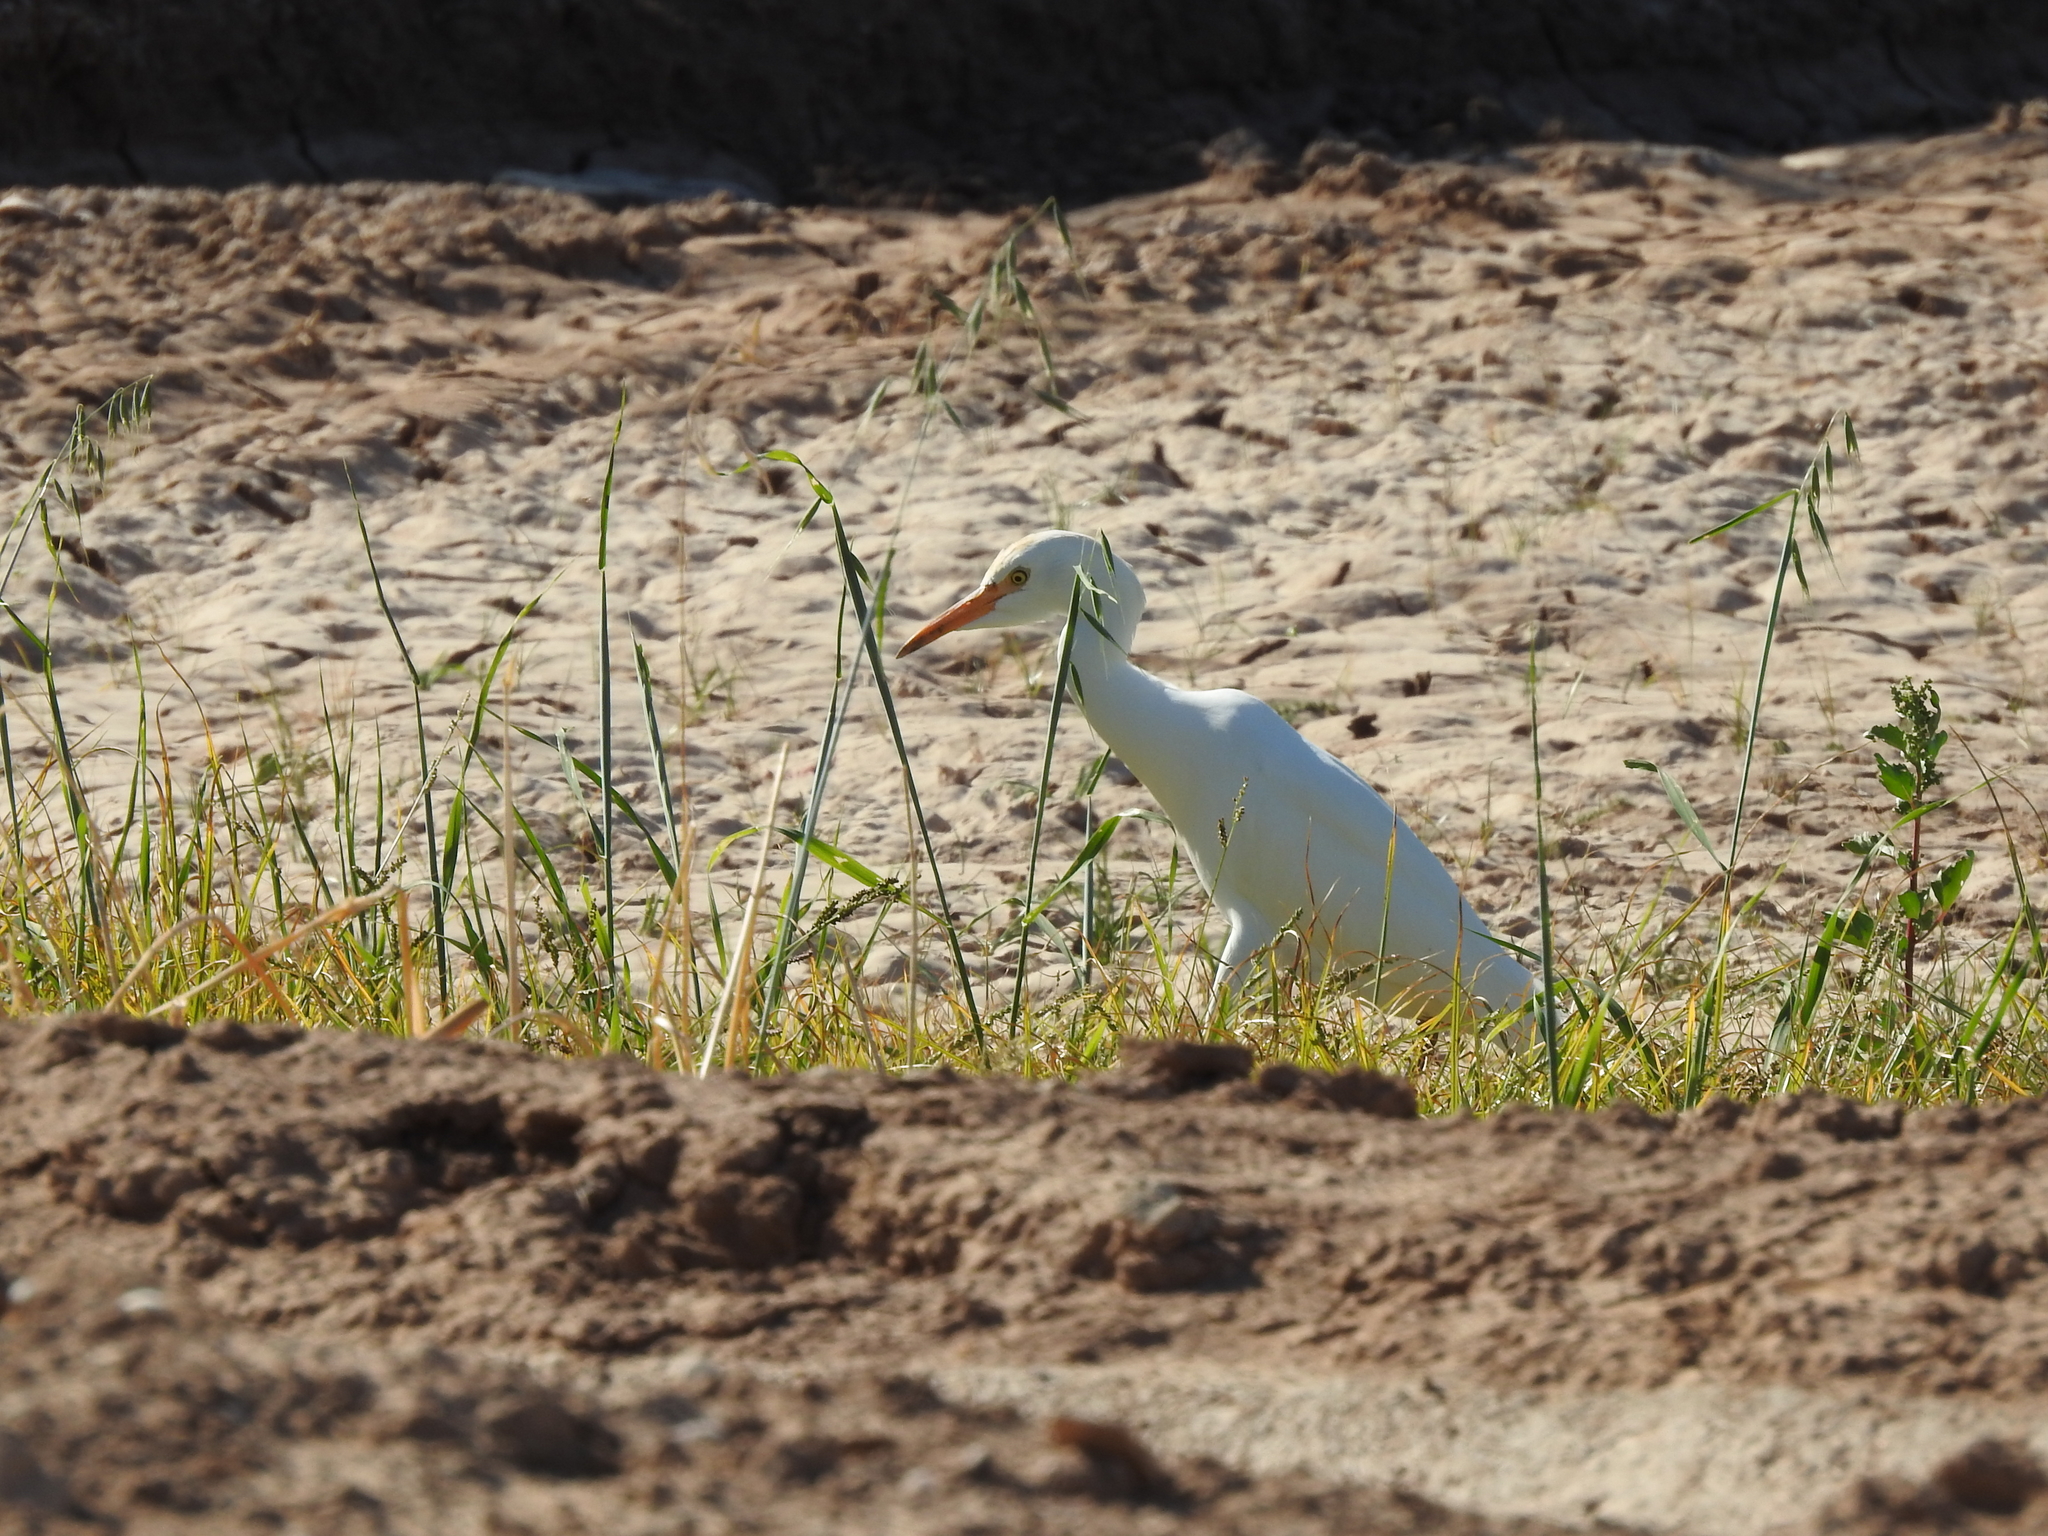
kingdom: Animalia
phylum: Chordata
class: Aves
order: Pelecaniformes
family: Ardeidae
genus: Bubulcus
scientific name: Bubulcus ibis
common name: Cattle egret
